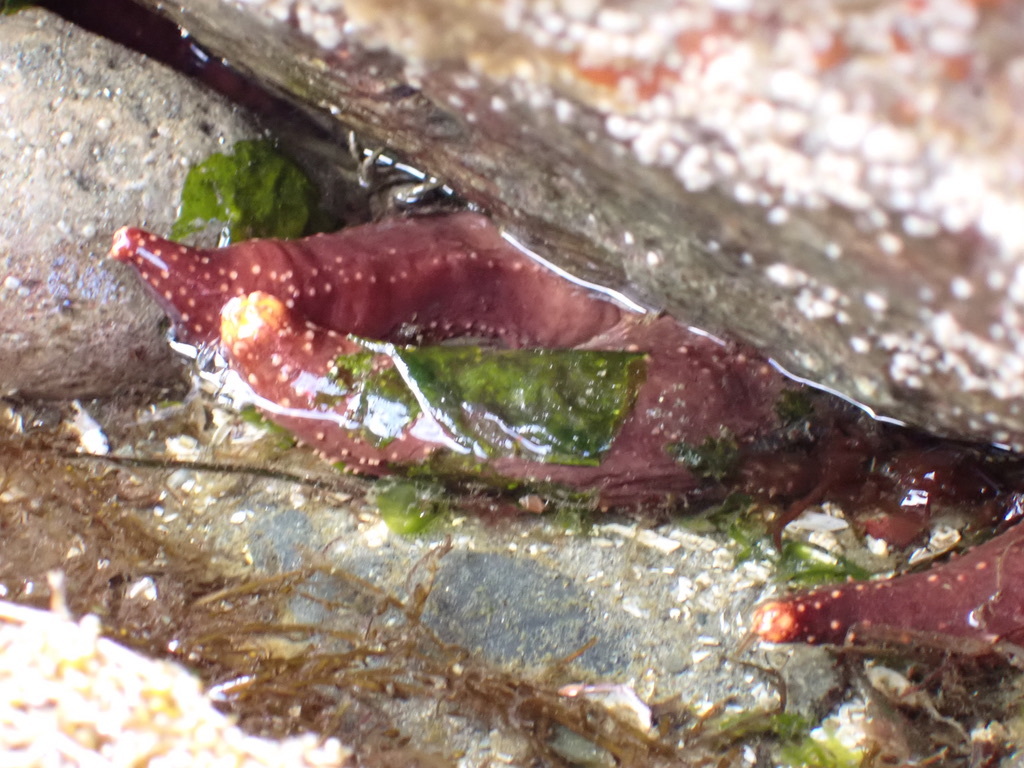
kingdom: Animalia
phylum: Echinodermata
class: Holothuroidea
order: Dendrochirotida
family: Cucumariidae
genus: Cucumaria
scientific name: Cucumaria miniata
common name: Orange sea cucumber
